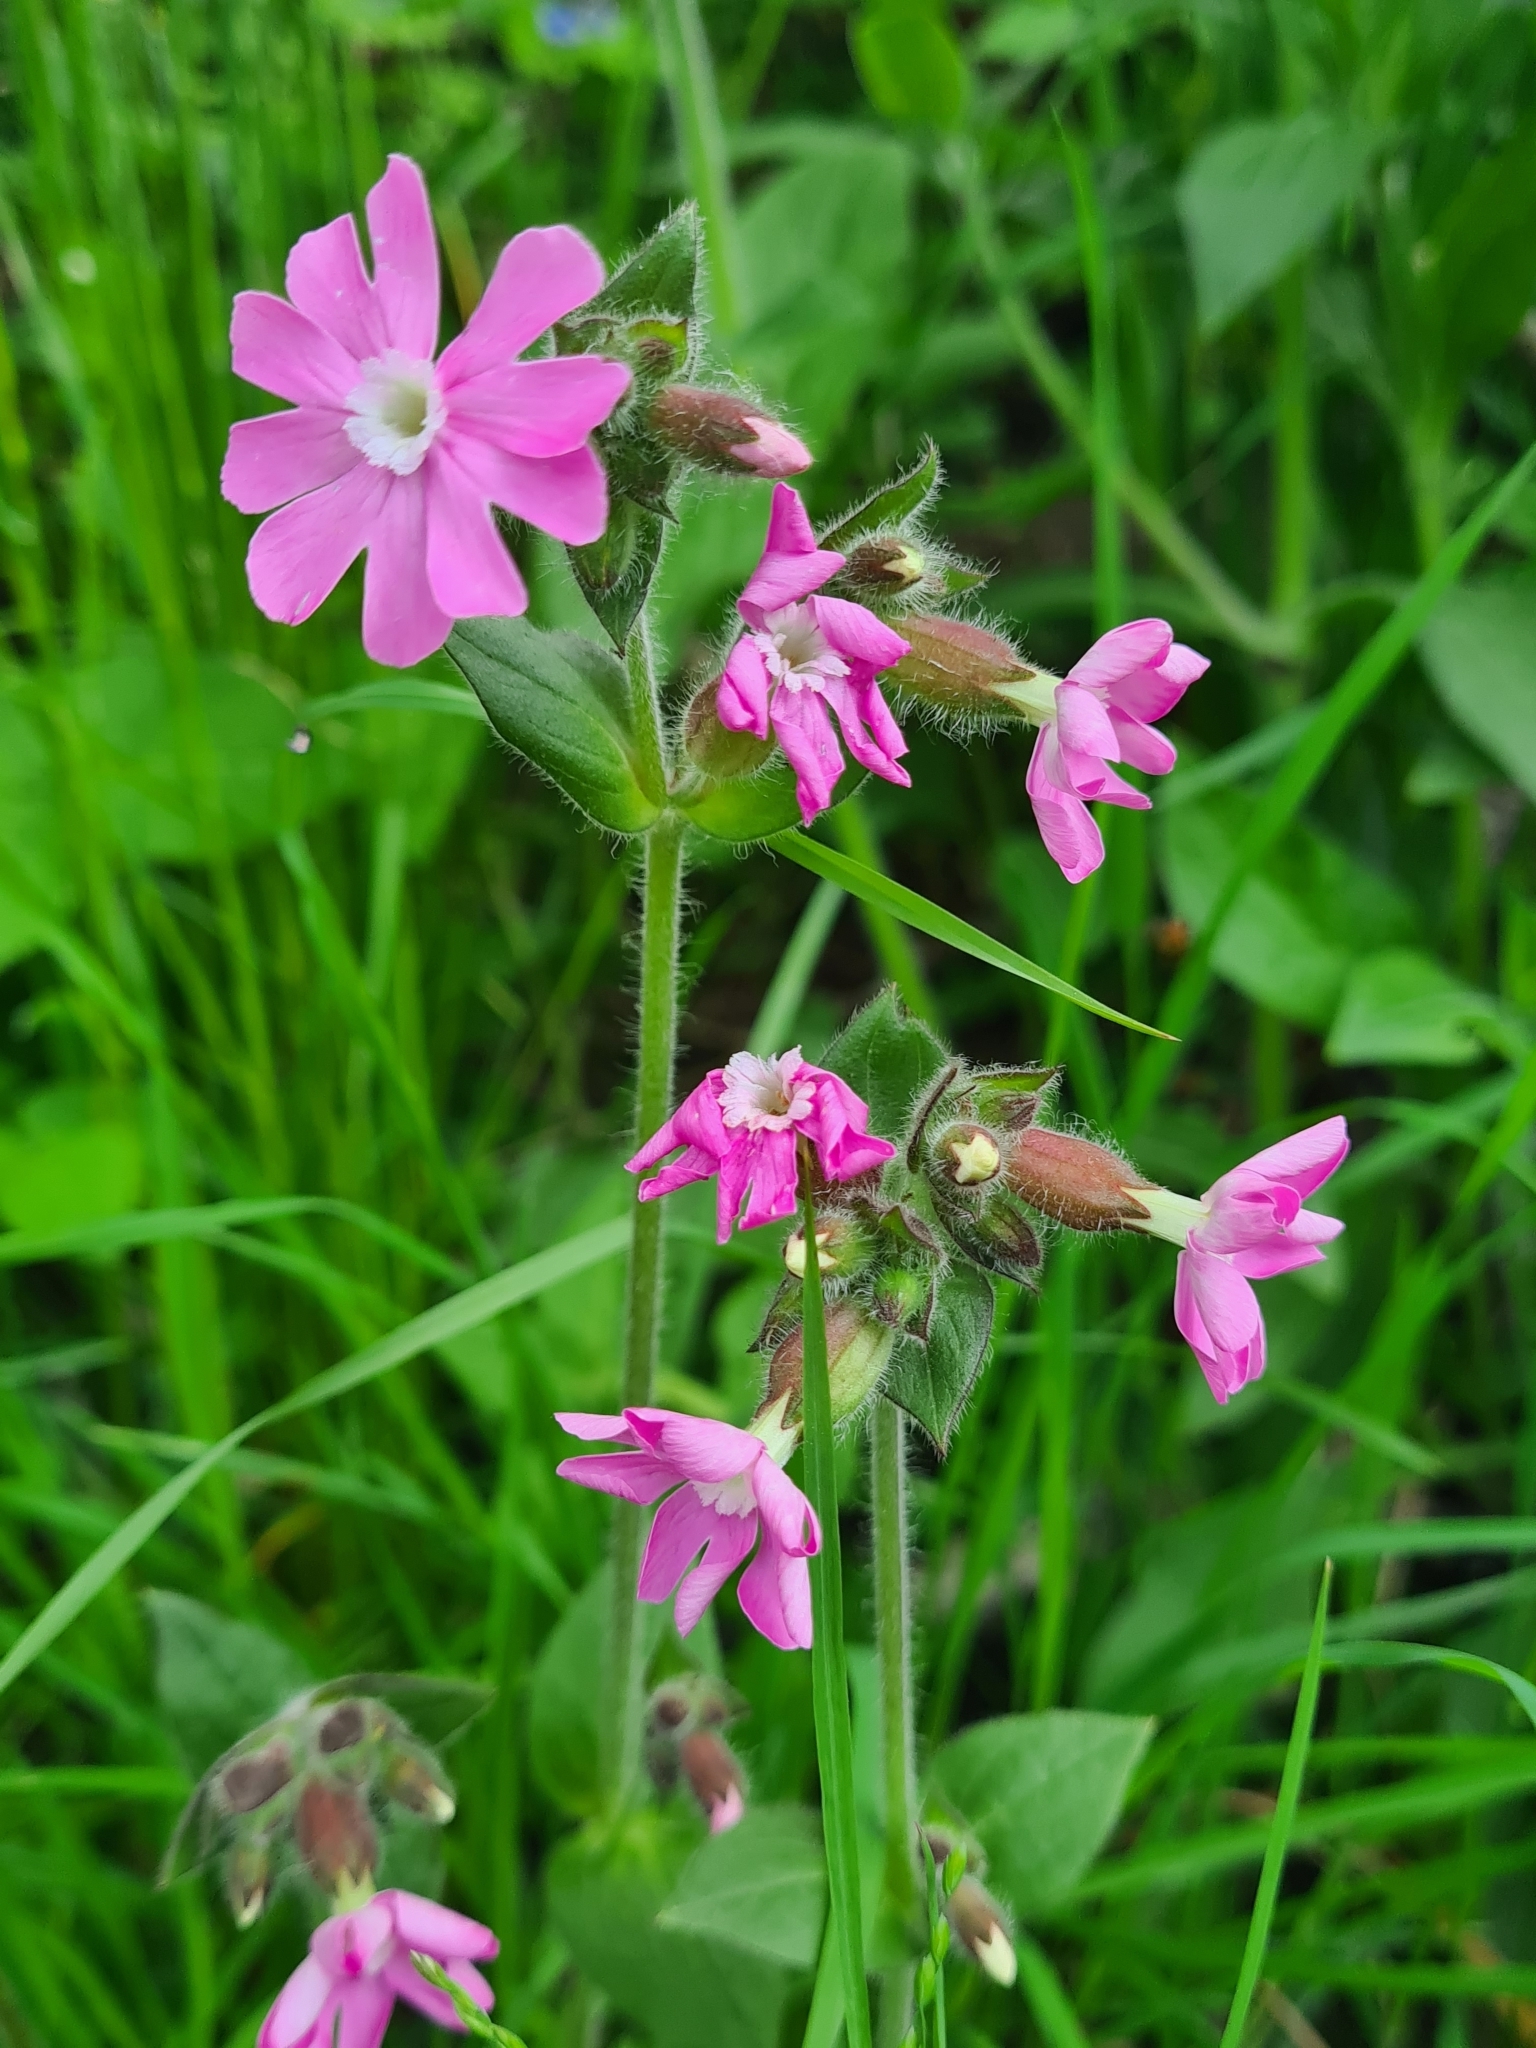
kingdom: Plantae
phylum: Tracheophyta
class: Magnoliopsida
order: Caryophyllales
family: Caryophyllaceae
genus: Silene
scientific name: Silene dioica
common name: Red campion
